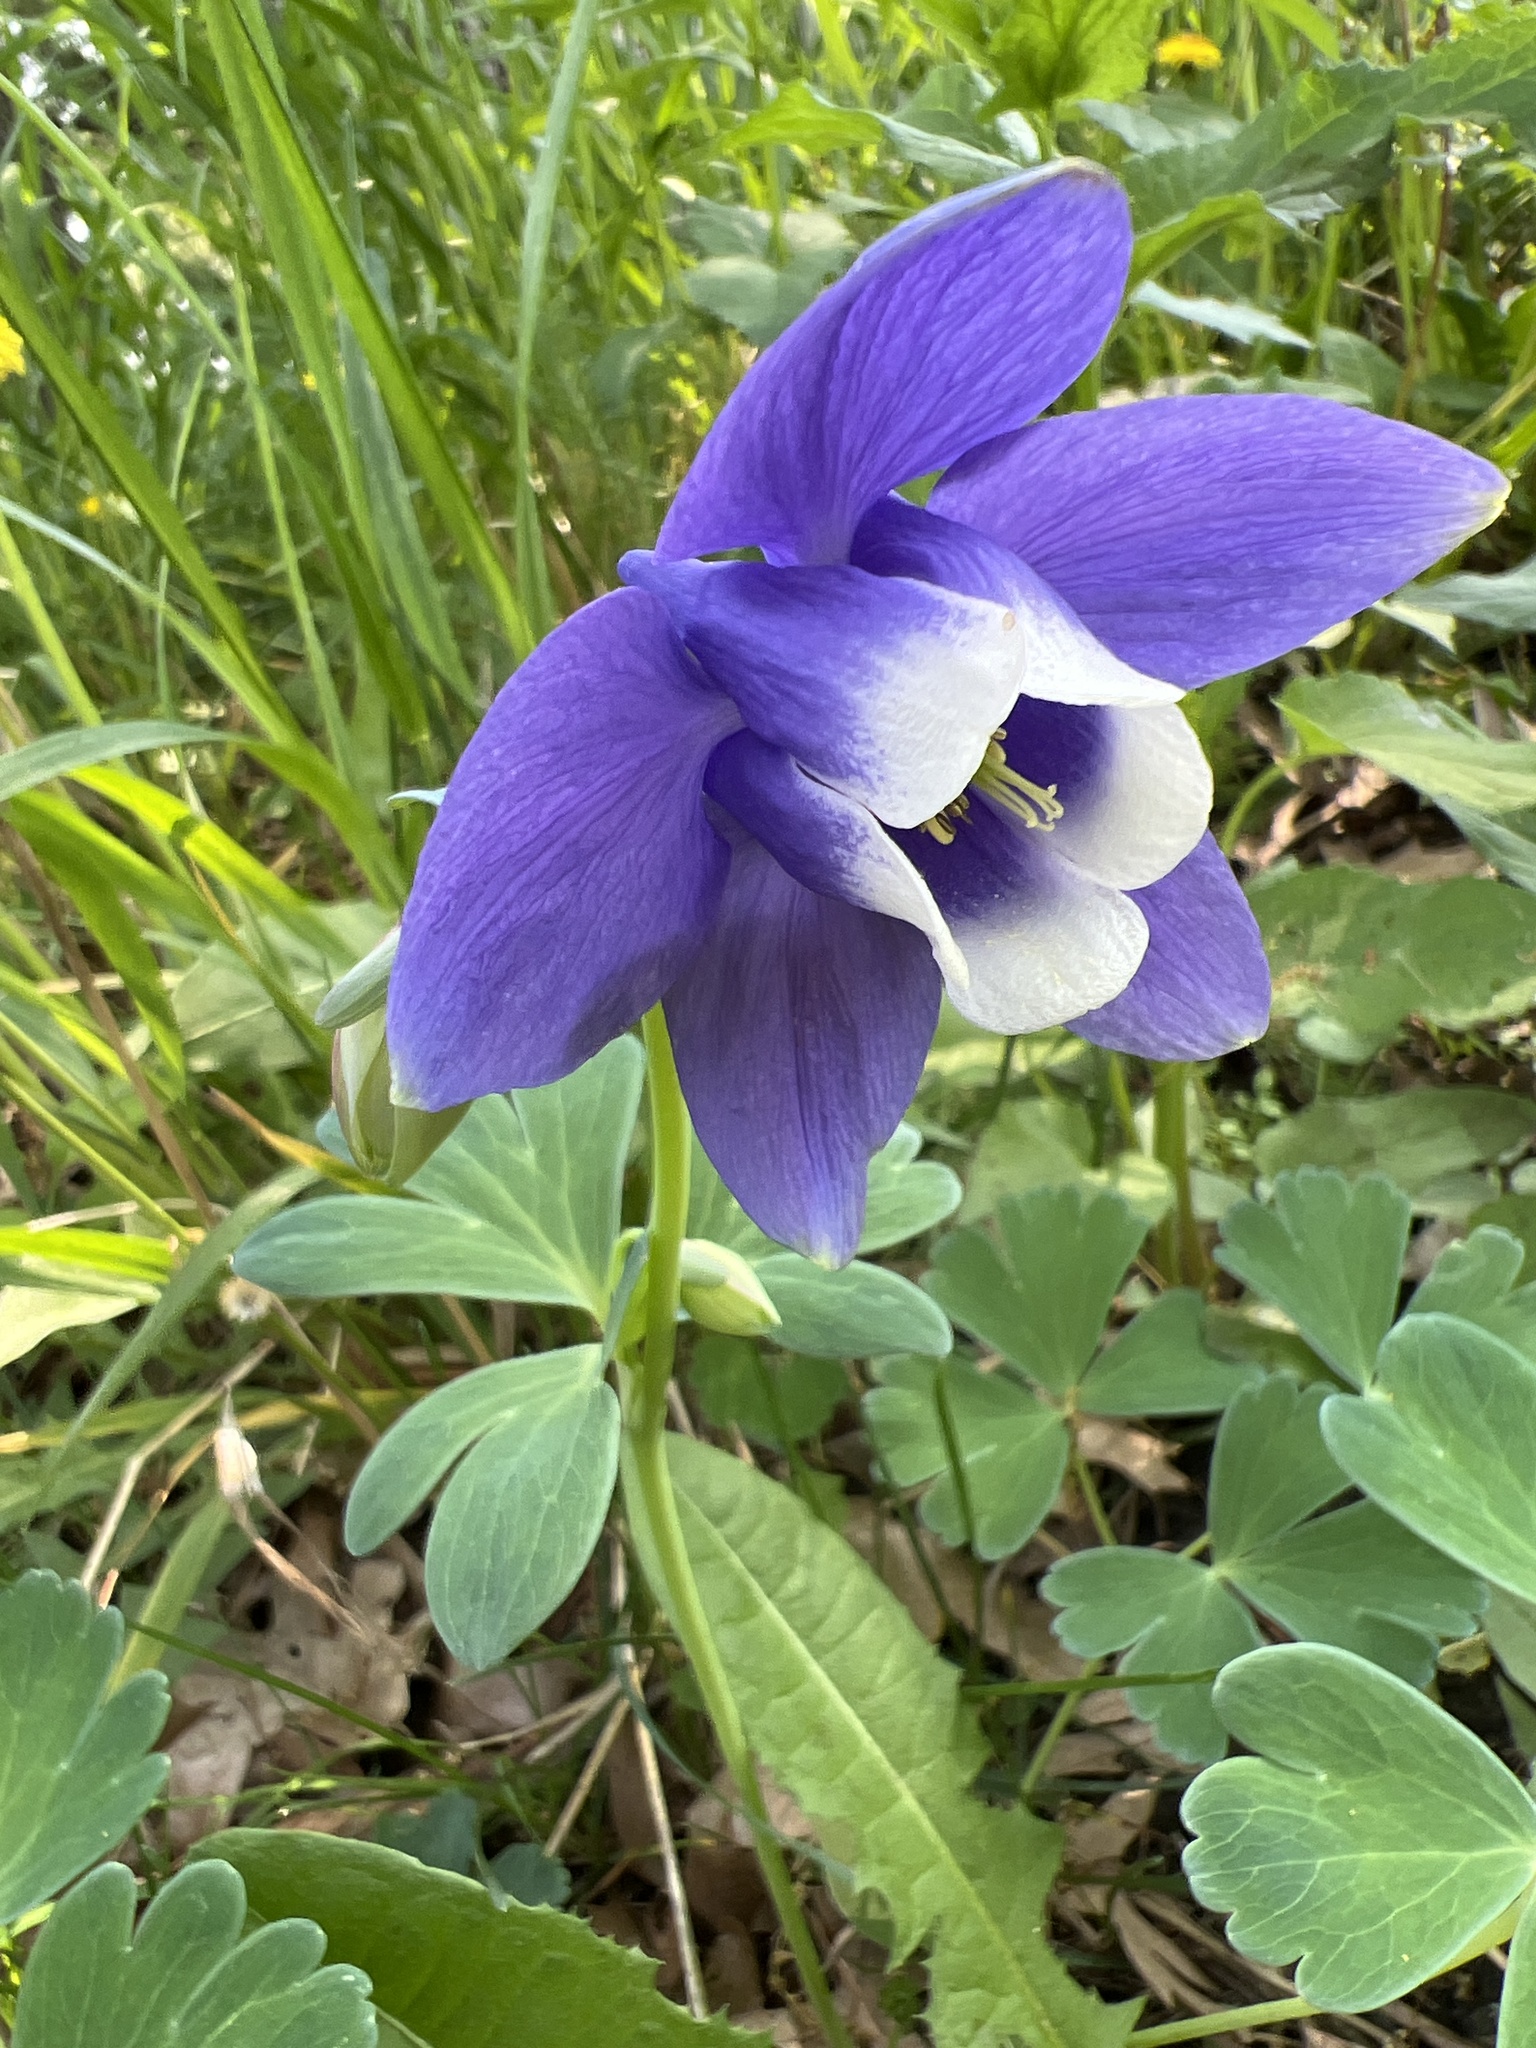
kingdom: Plantae
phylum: Tracheophyta
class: Magnoliopsida
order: Ranunculales
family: Ranunculaceae
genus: Aquilegia
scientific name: Aquilegia vulgaris
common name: Columbine
